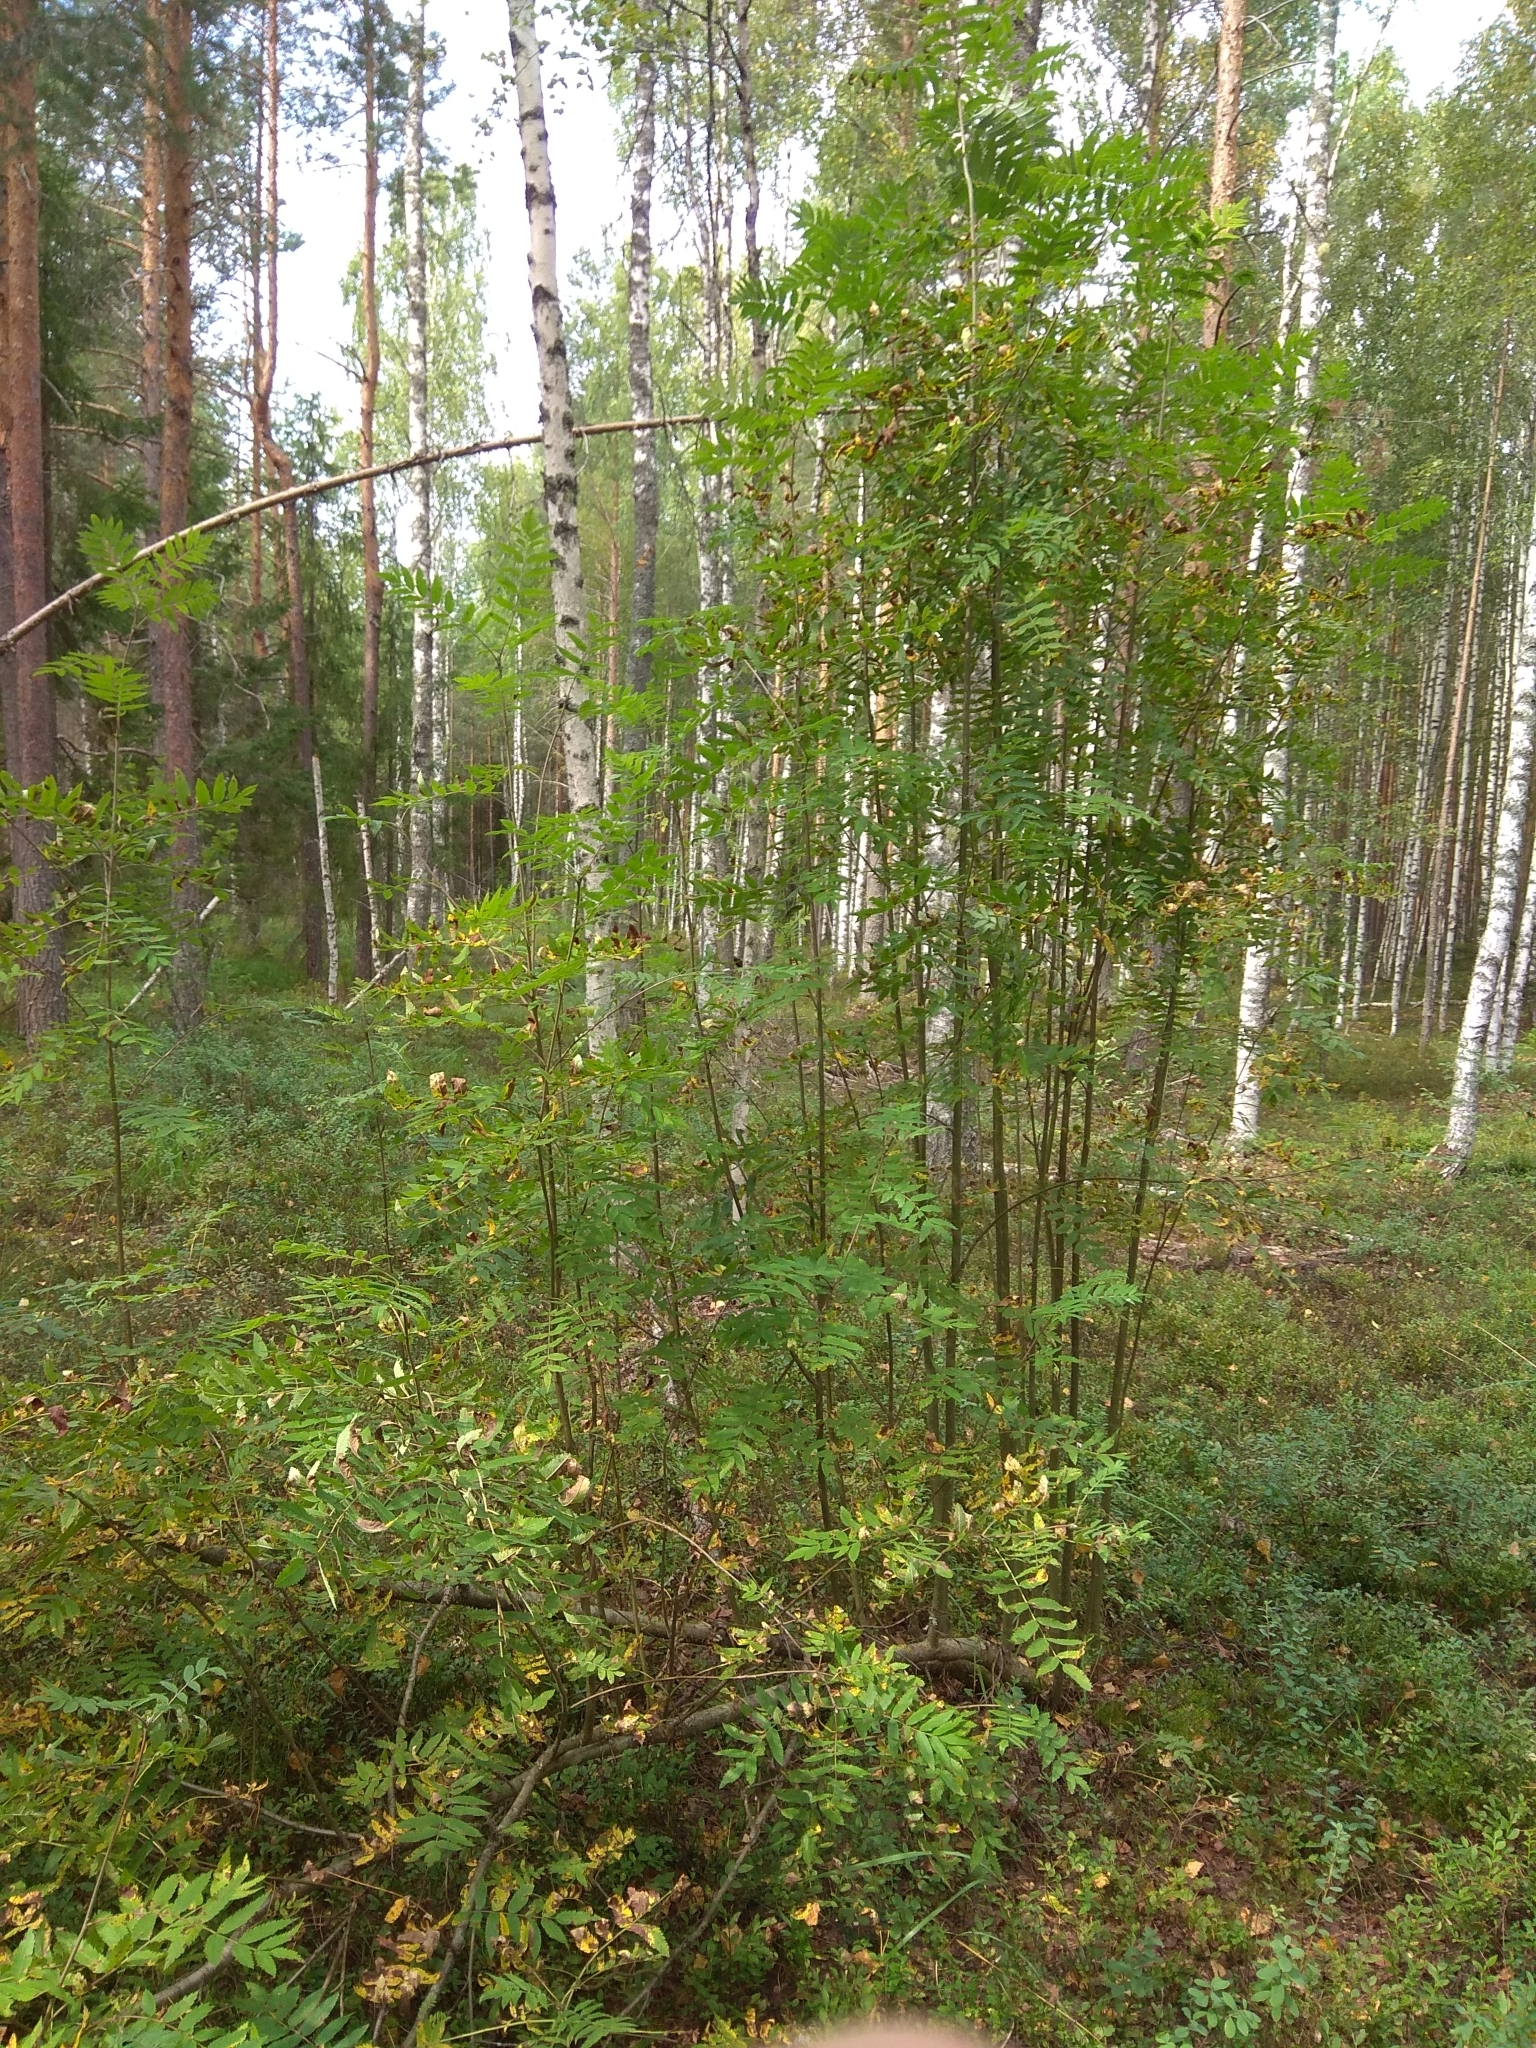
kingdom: Plantae
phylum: Tracheophyta
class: Magnoliopsida
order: Rosales
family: Rosaceae
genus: Sorbus
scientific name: Sorbus aucuparia
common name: Rowan
